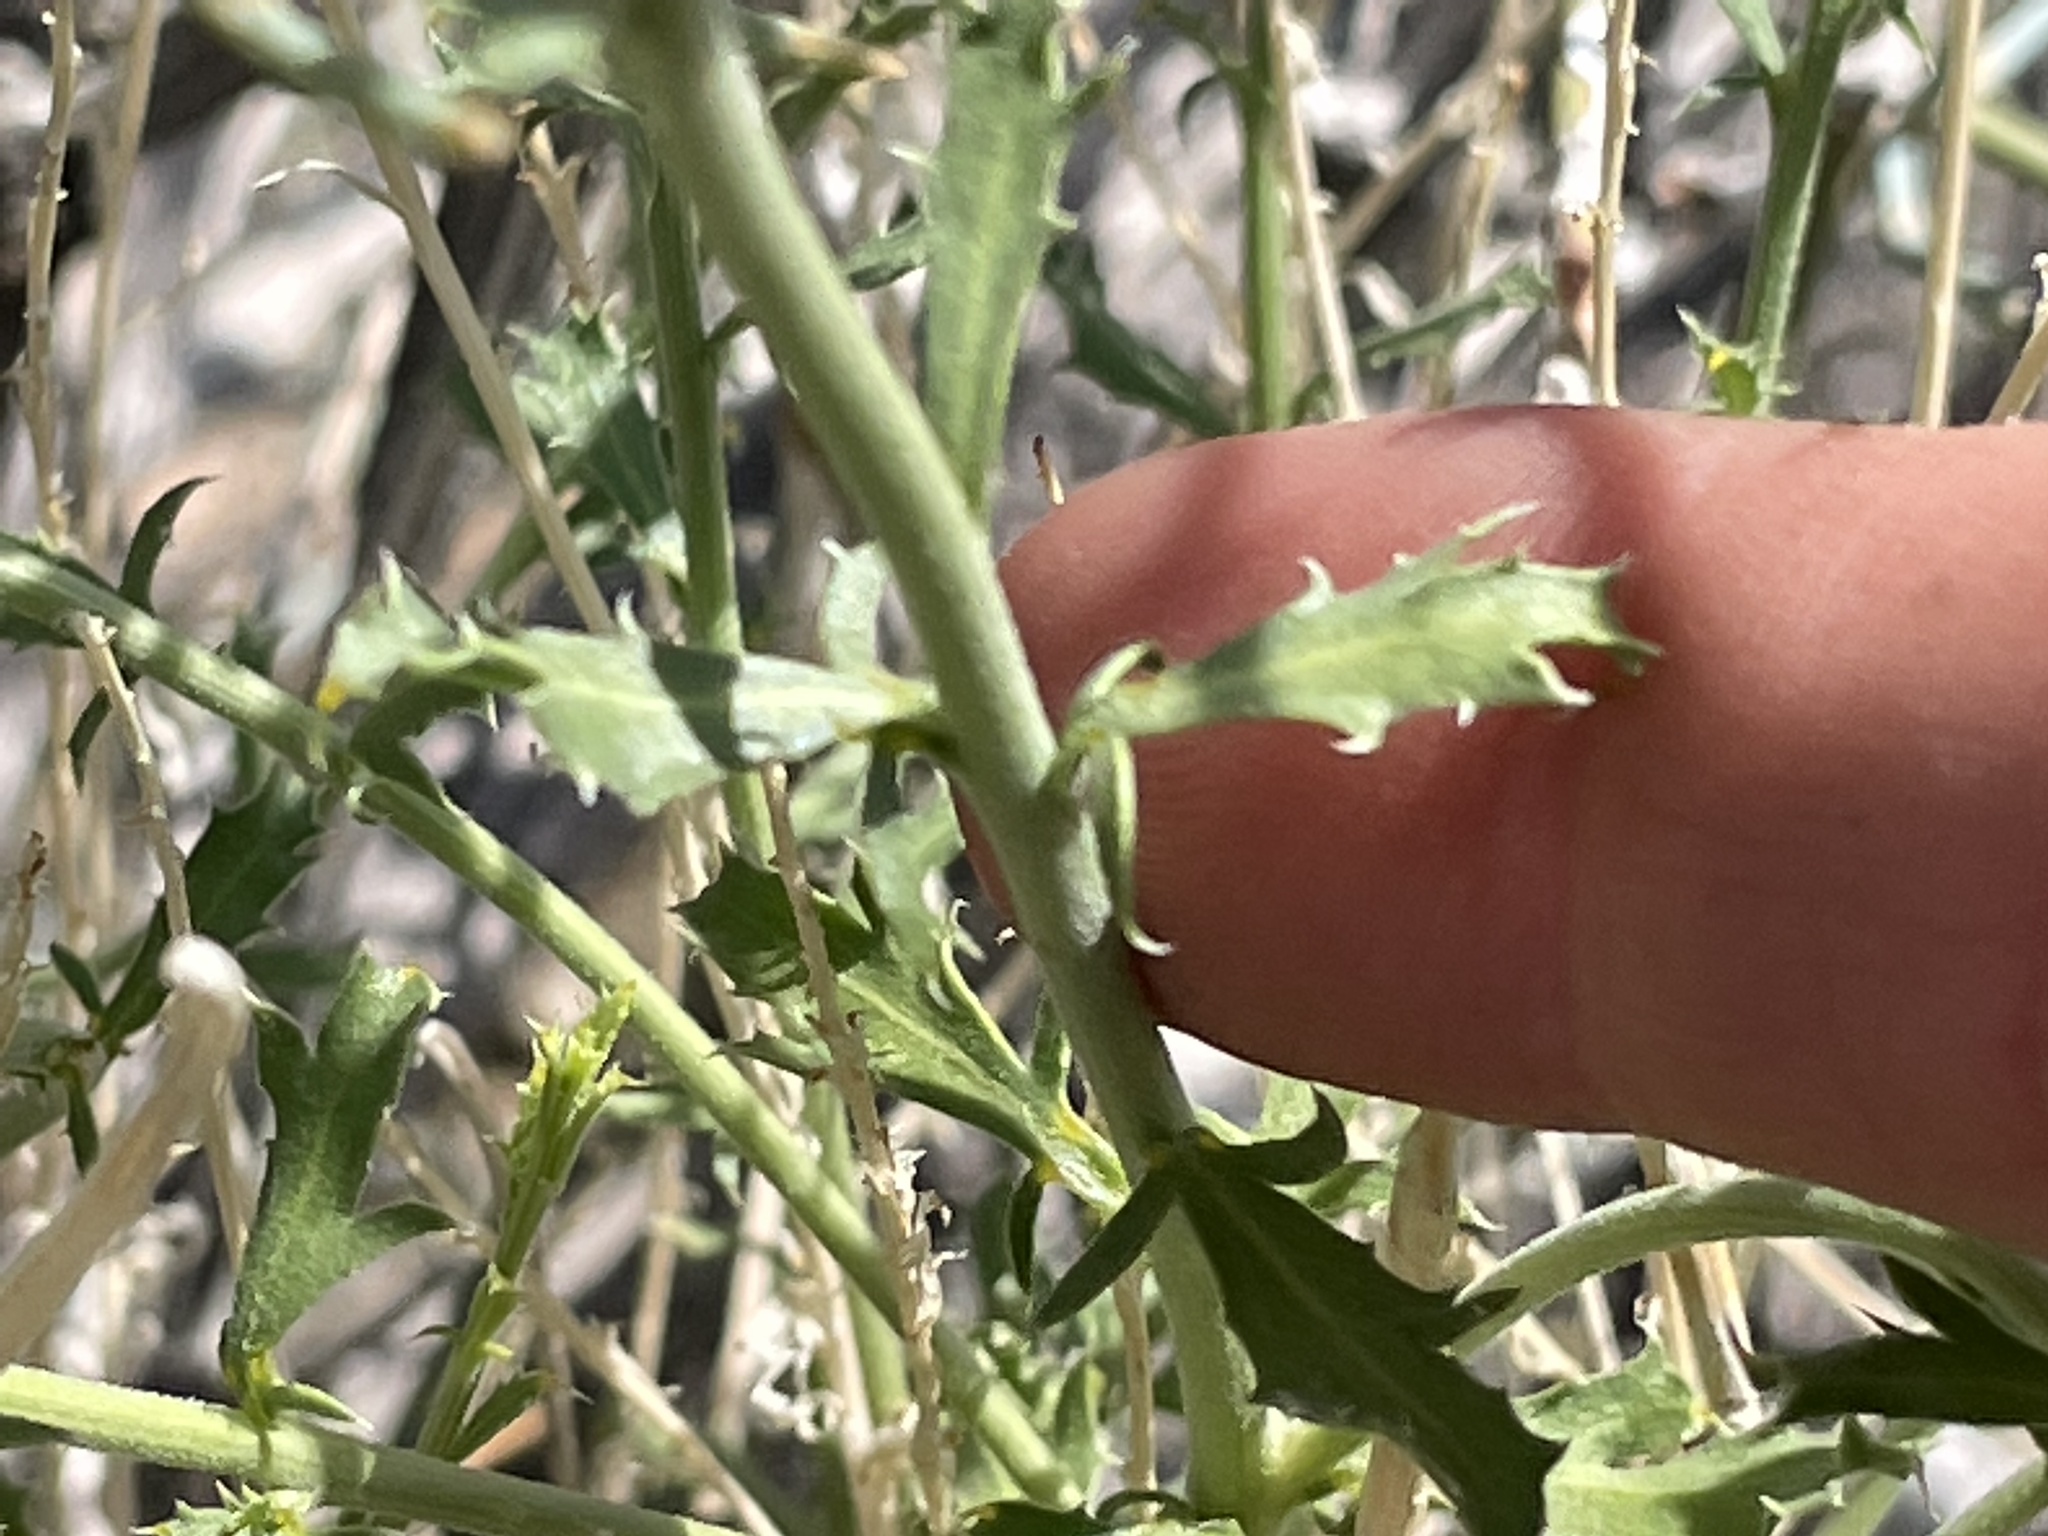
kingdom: Plantae
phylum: Tracheophyta
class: Magnoliopsida
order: Asterales
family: Asteraceae
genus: Adenophyllum
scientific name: Adenophyllum cooperi
